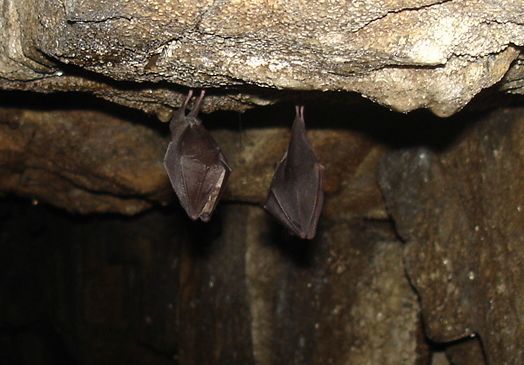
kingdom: Animalia
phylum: Chordata
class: Mammalia
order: Chiroptera
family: Rhinolophidae
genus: Rhinolophus
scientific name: Rhinolophus hipposideros
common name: Lesser horseshoe bat
